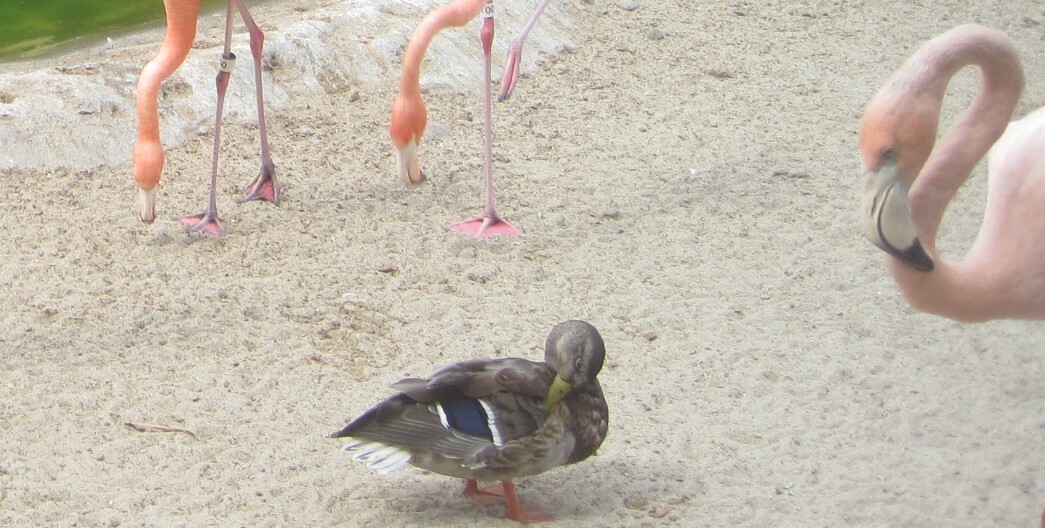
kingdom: Animalia
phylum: Chordata
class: Aves
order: Anseriformes
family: Anatidae
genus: Anas
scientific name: Anas platyrhynchos
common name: Mallard
